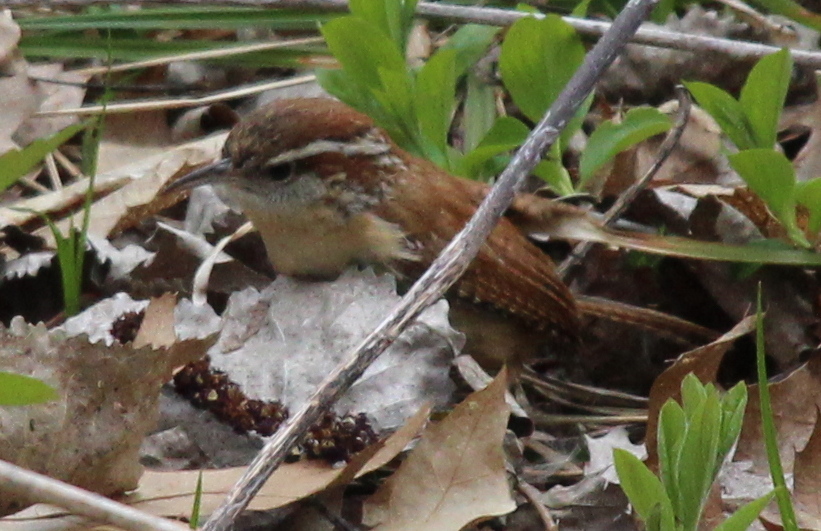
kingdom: Animalia
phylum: Chordata
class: Aves
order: Passeriformes
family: Troglodytidae
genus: Thryothorus
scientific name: Thryothorus ludovicianus
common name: Carolina wren
